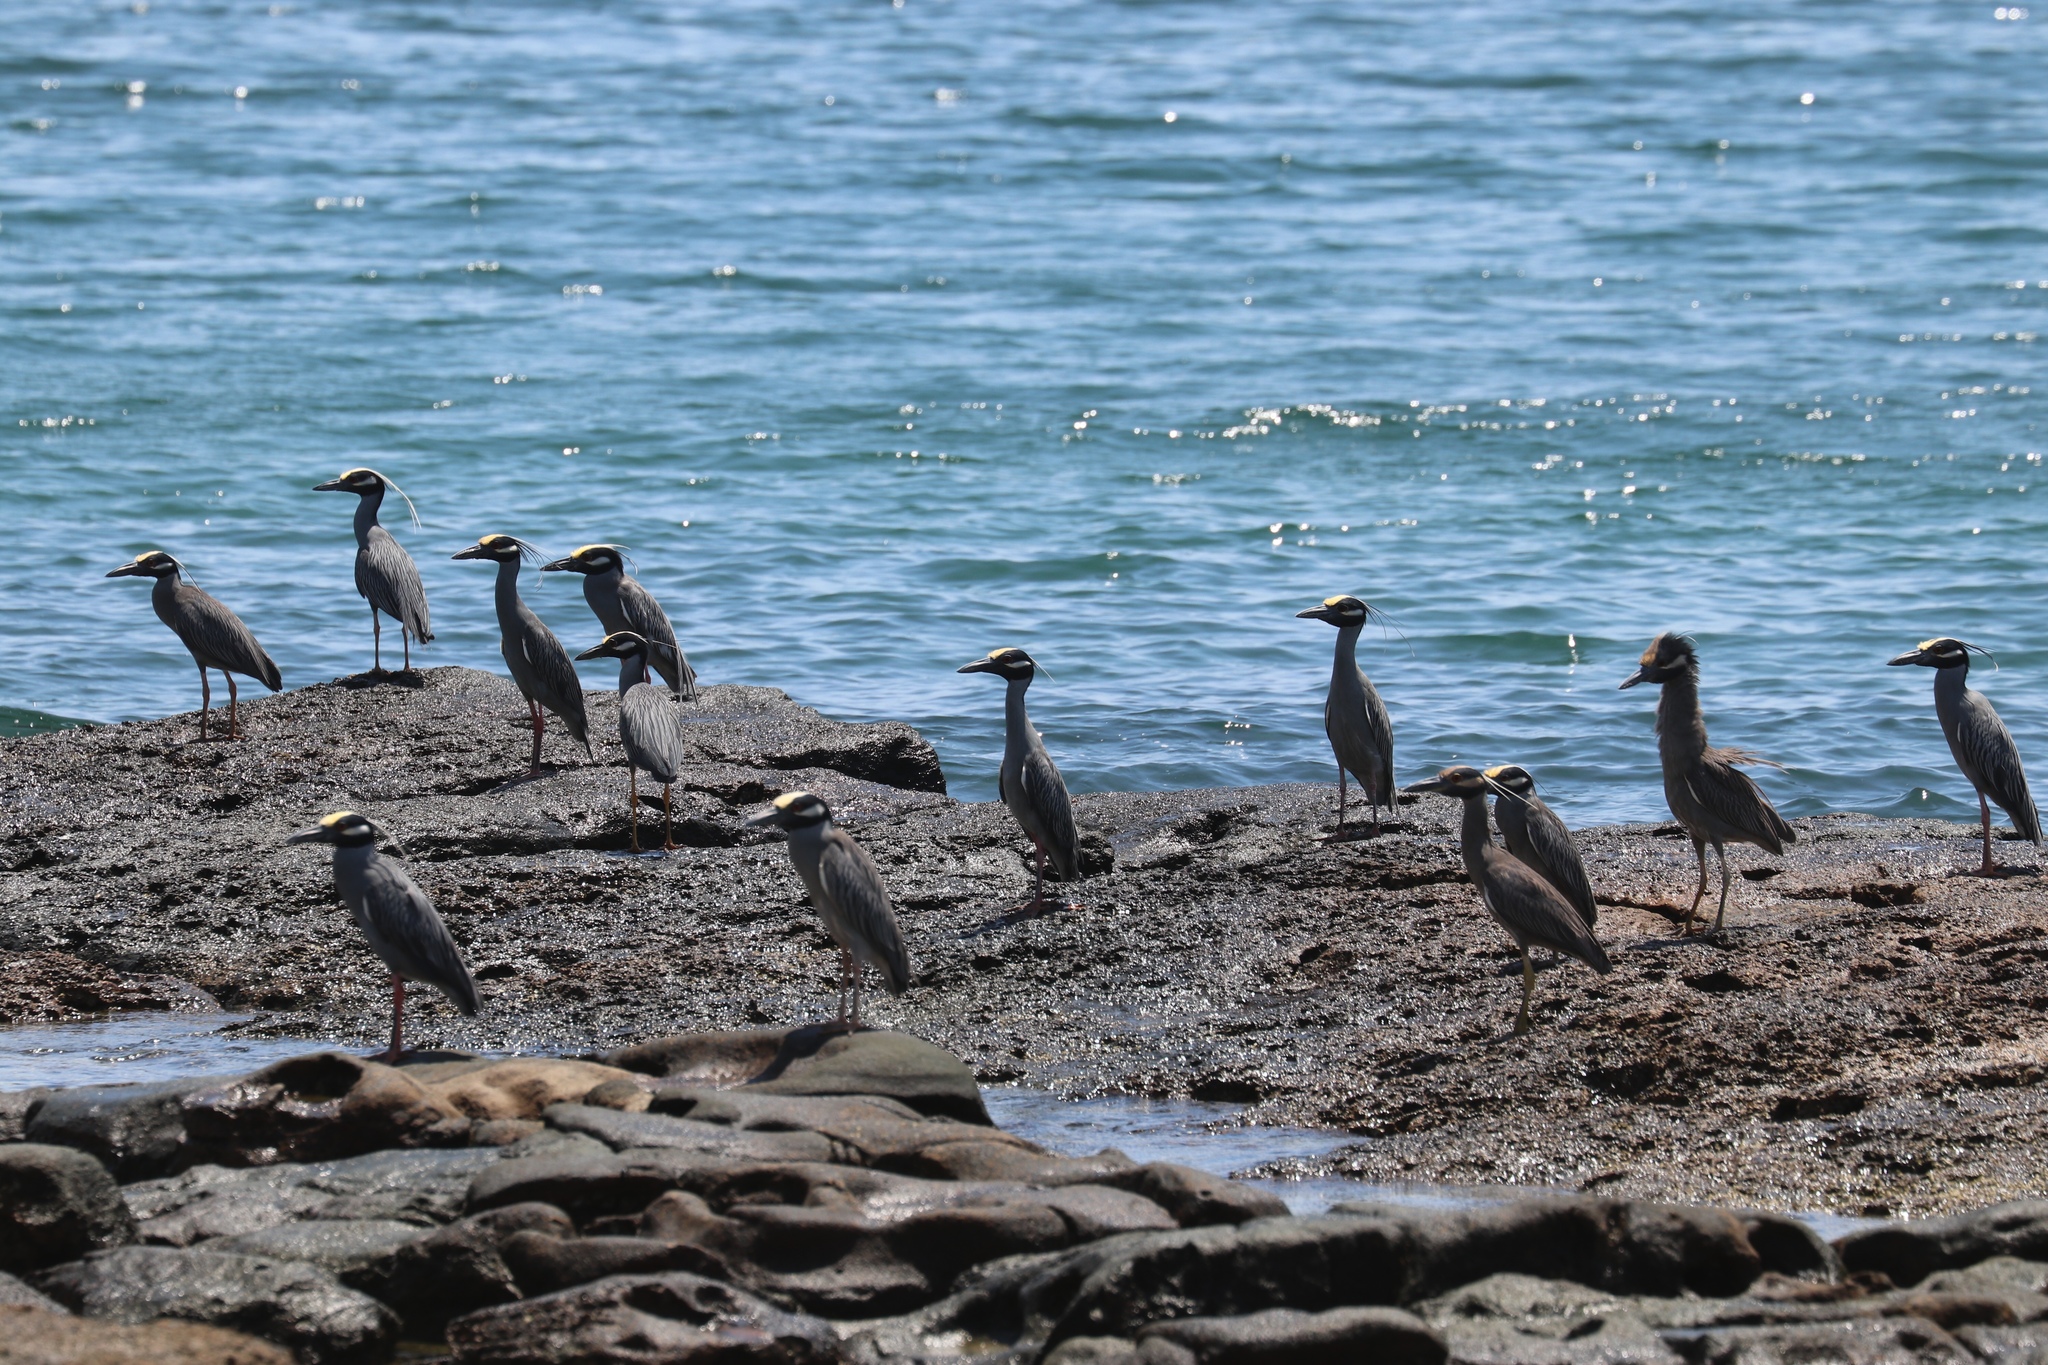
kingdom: Animalia
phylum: Chordata
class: Aves
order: Pelecaniformes
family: Ardeidae
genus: Nyctanassa
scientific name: Nyctanassa violacea
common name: Yellow-crowned night heron
